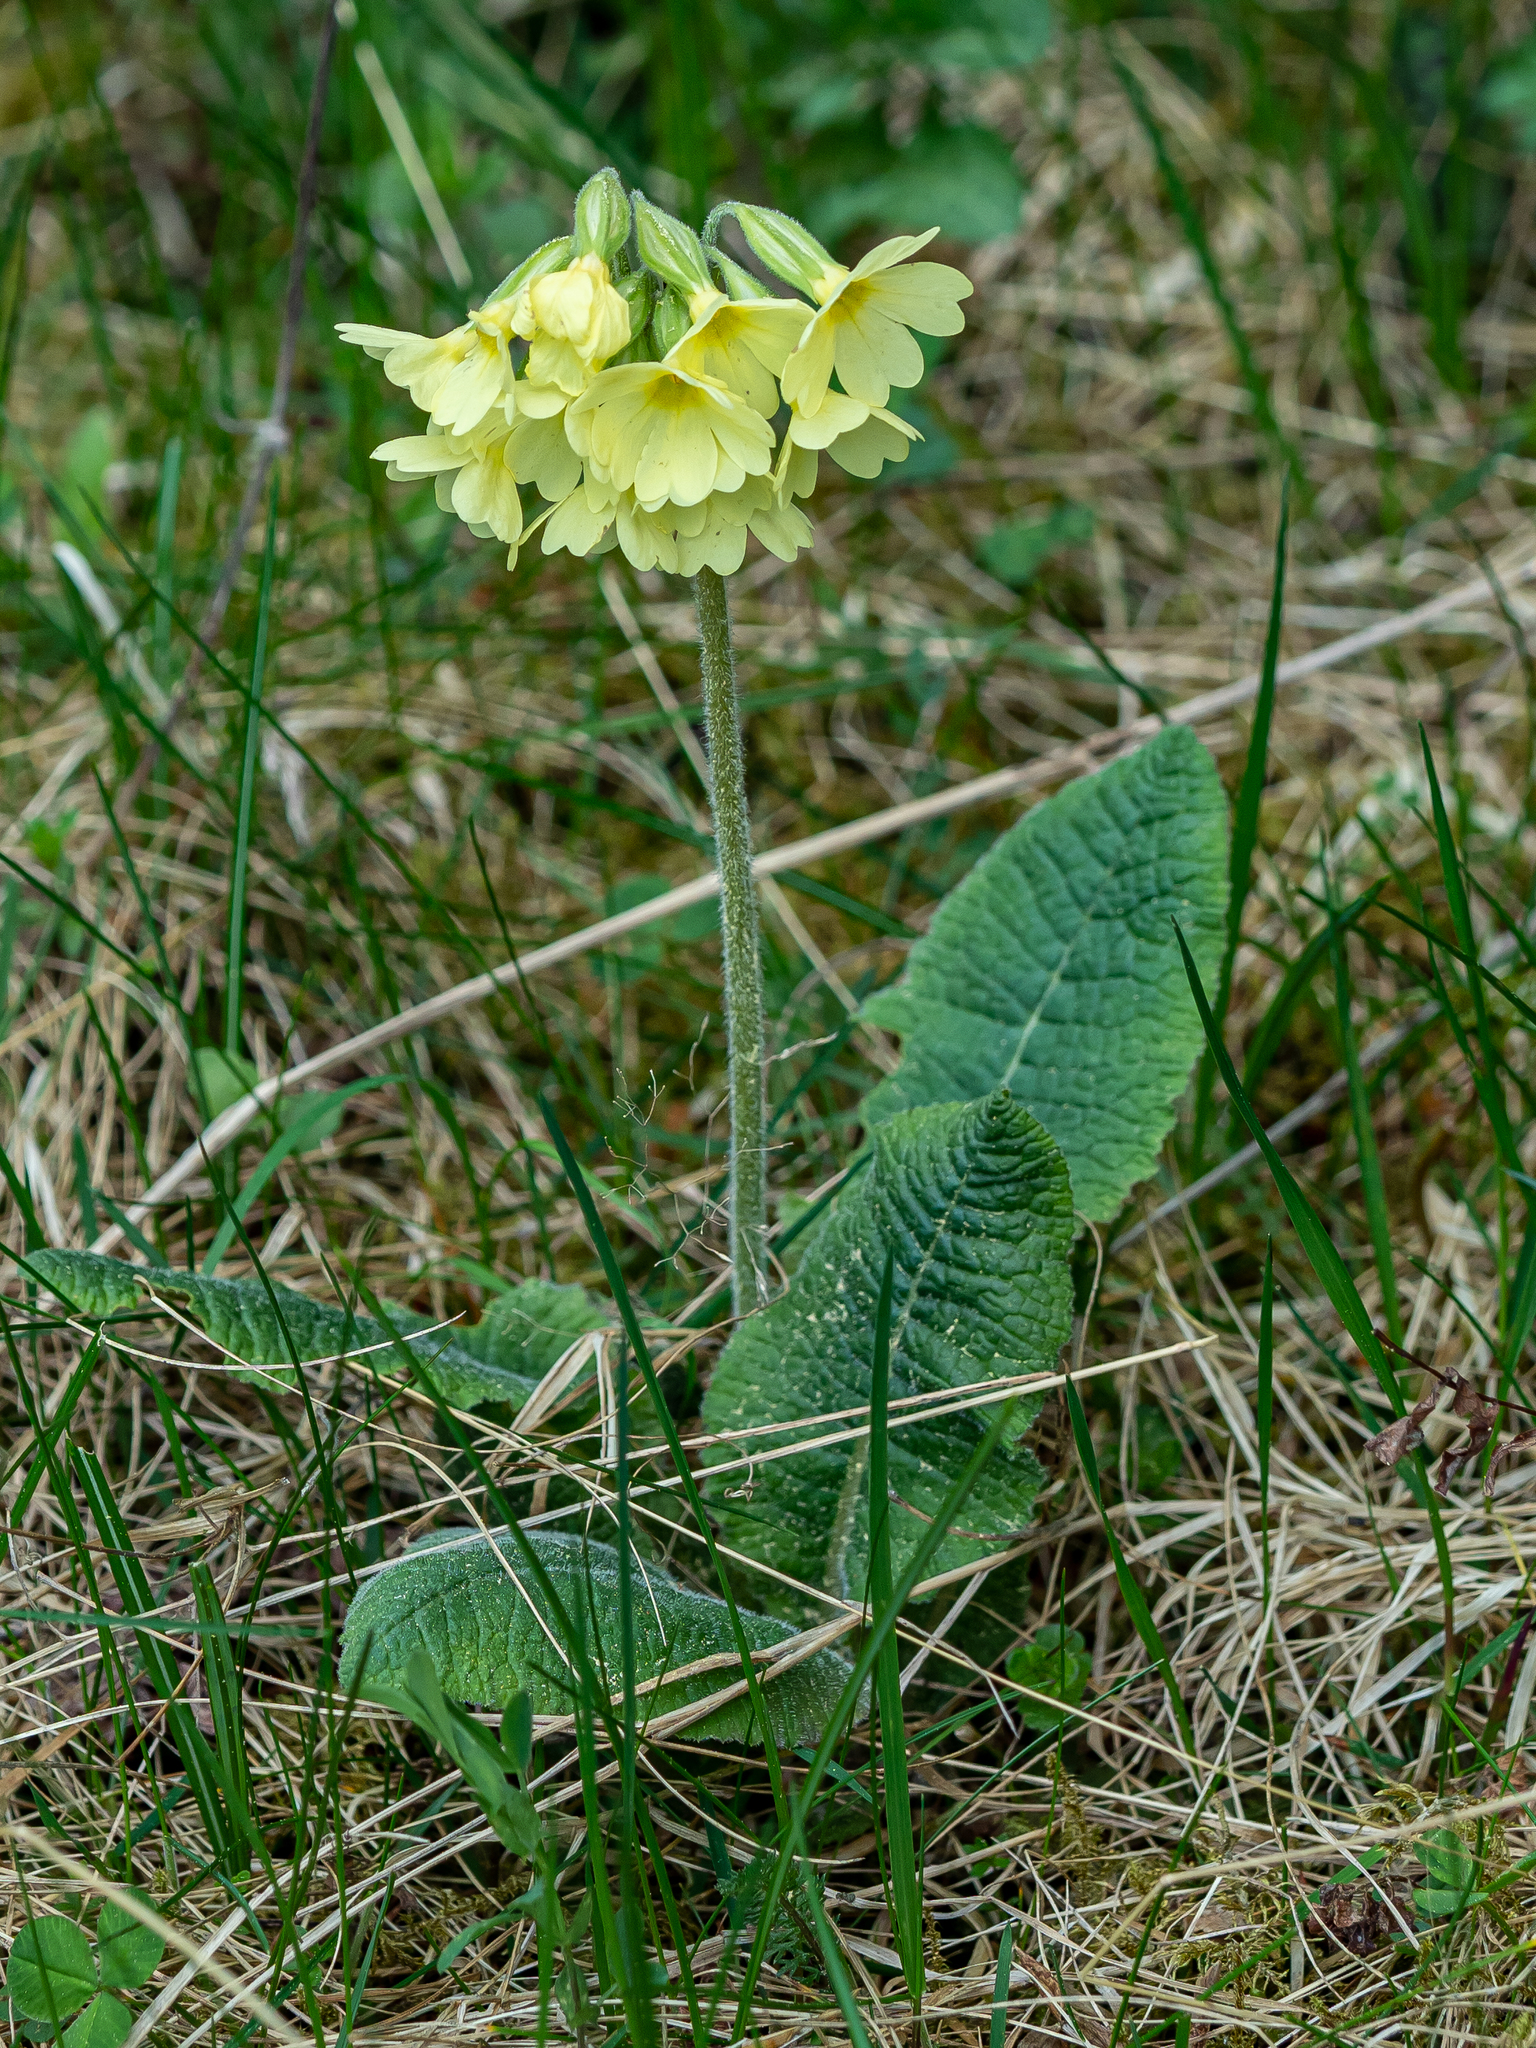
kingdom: Plantae
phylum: Tracheophyta
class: Magnoliopsida
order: Ericales
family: Primulaceae
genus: Primula
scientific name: Primula elatior
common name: Oxlip
